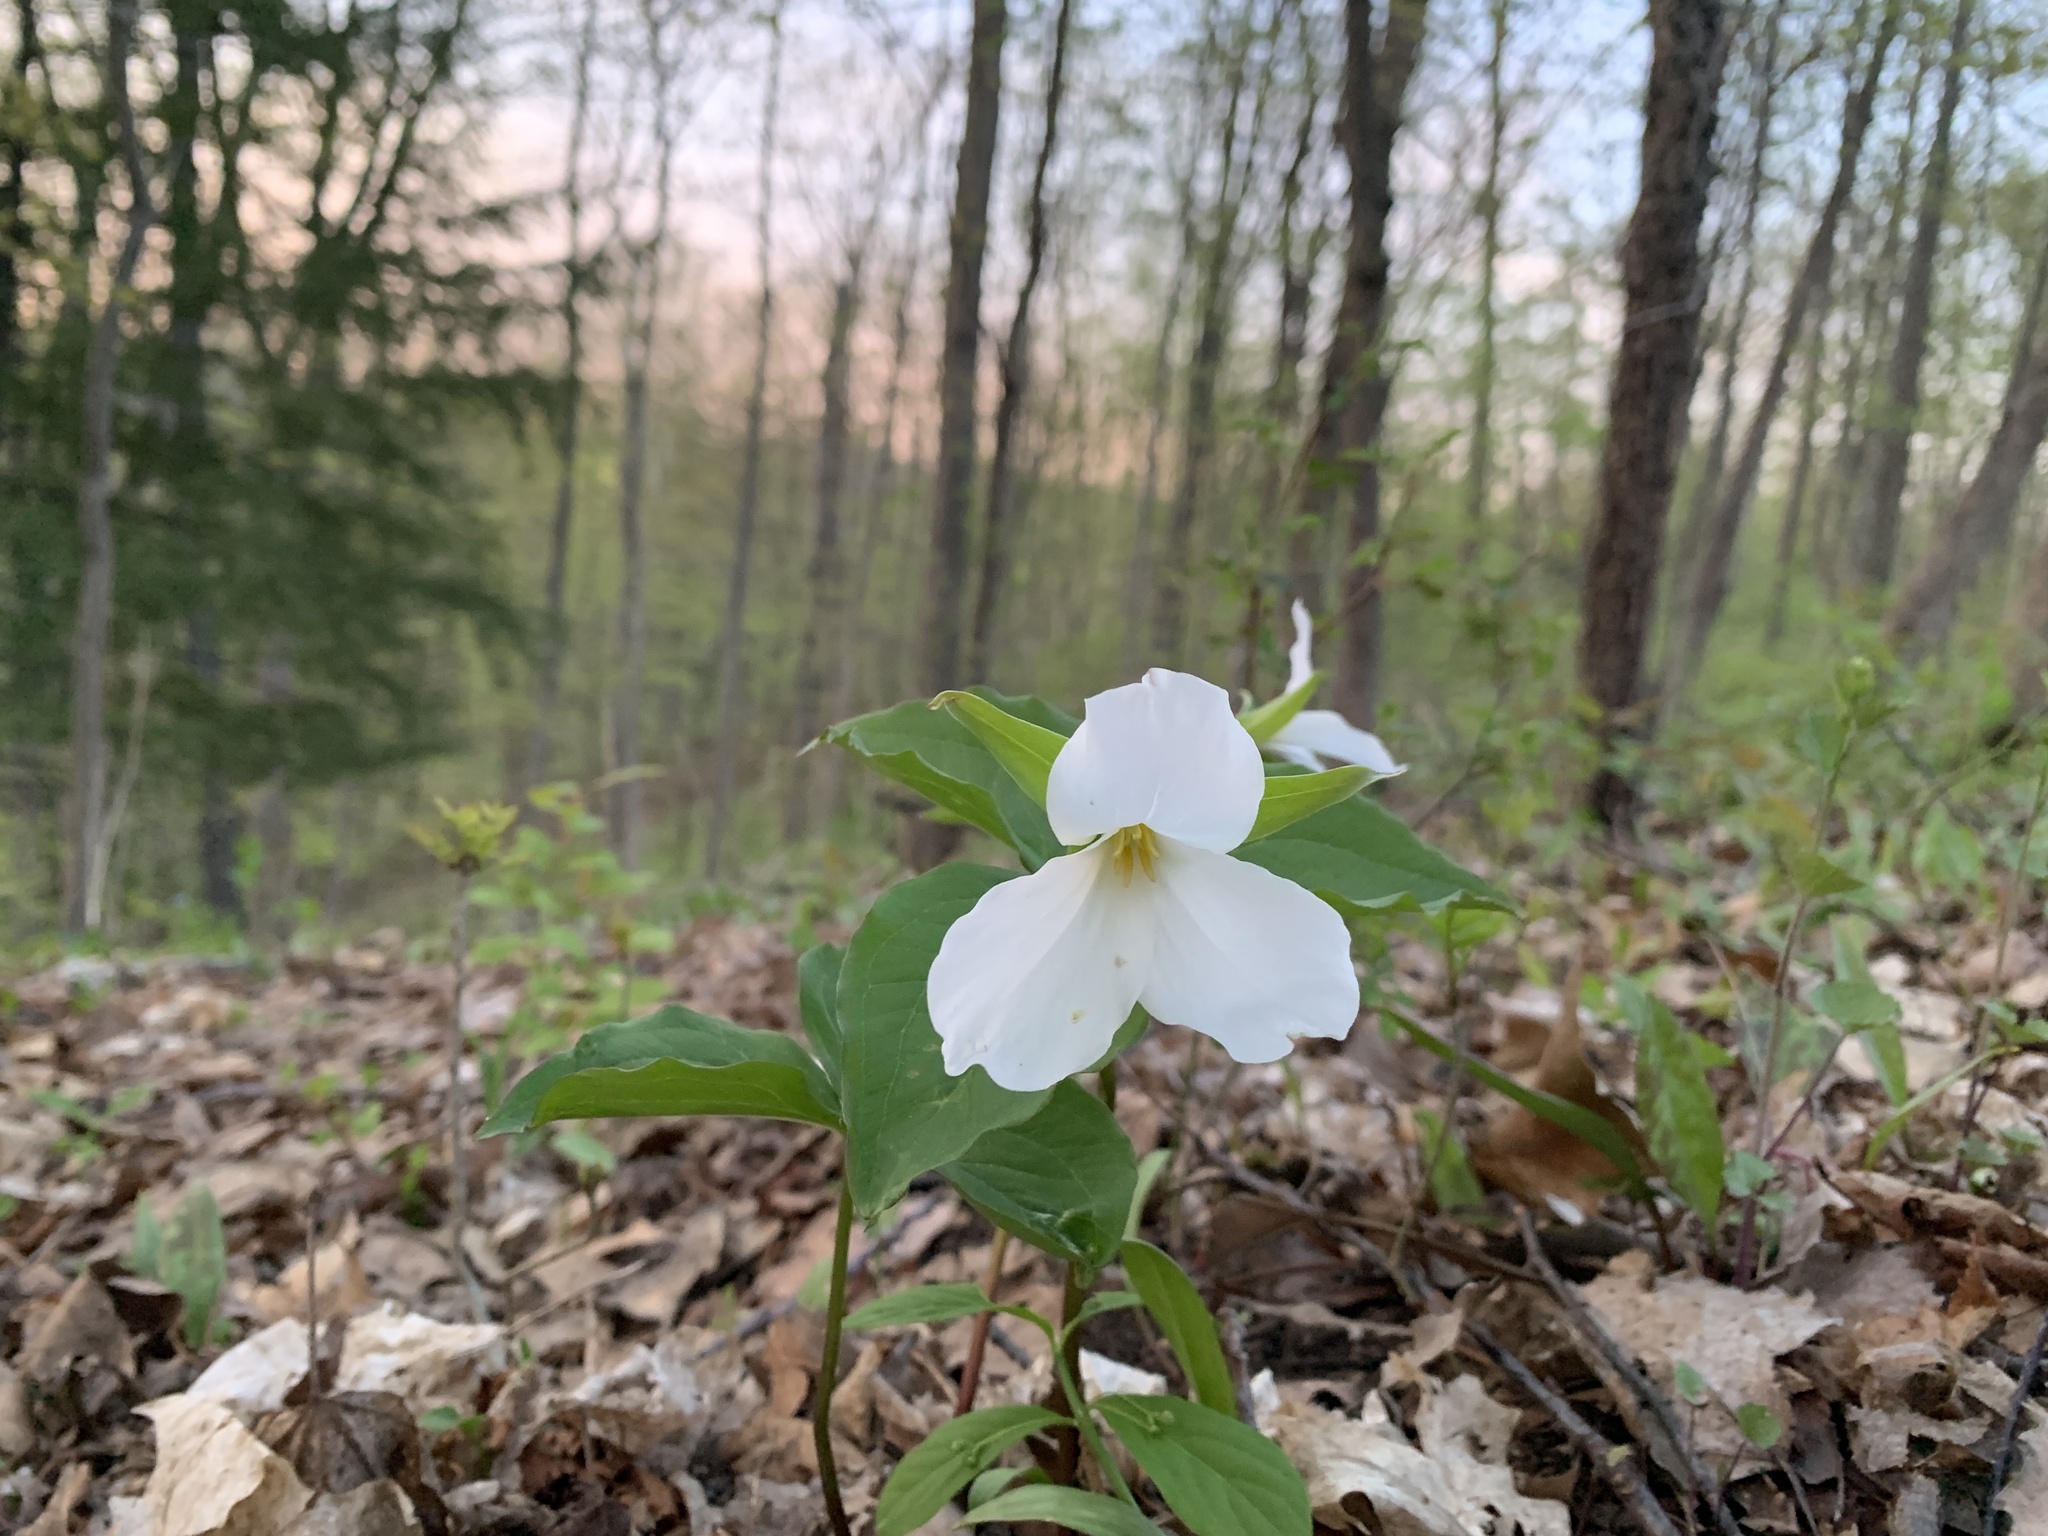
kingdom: Plantae
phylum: Tracheophyta
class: Liliopsida
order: Liliales
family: Melanthiaceae
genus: Trillium
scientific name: Trillium grandiflorum
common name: Great white trillium
